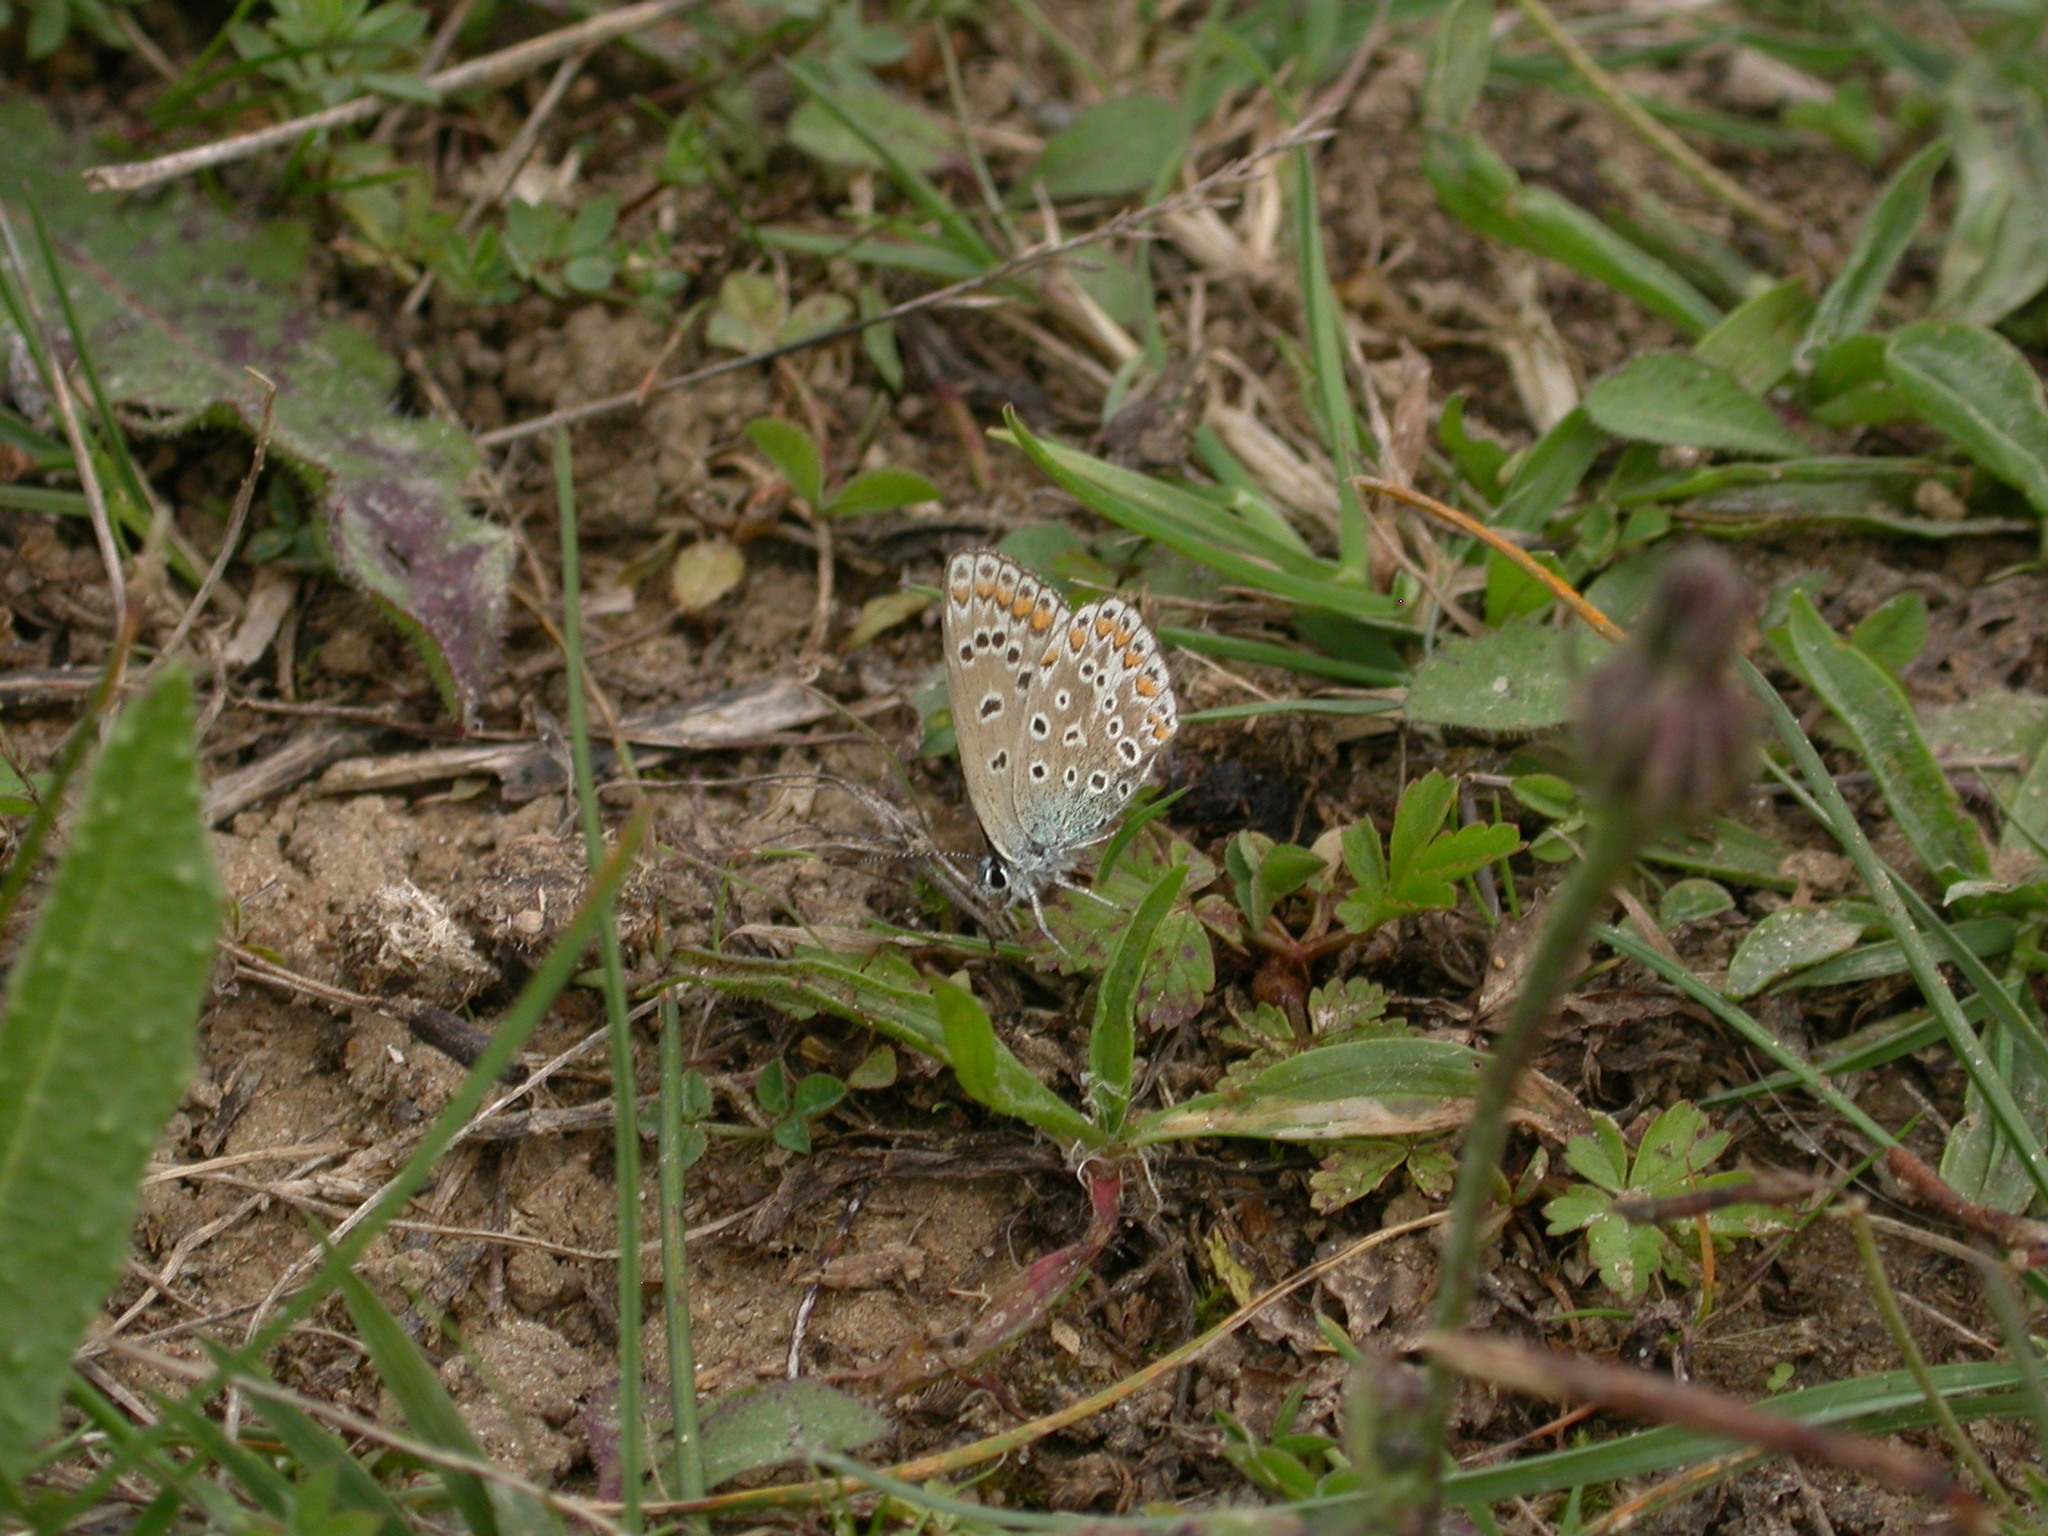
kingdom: Animalia
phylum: Arthropoda
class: Insecta
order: Lepidoptera
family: Lycaenidae
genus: Polyommatus
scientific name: Polyommatus icarus
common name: Common blue
